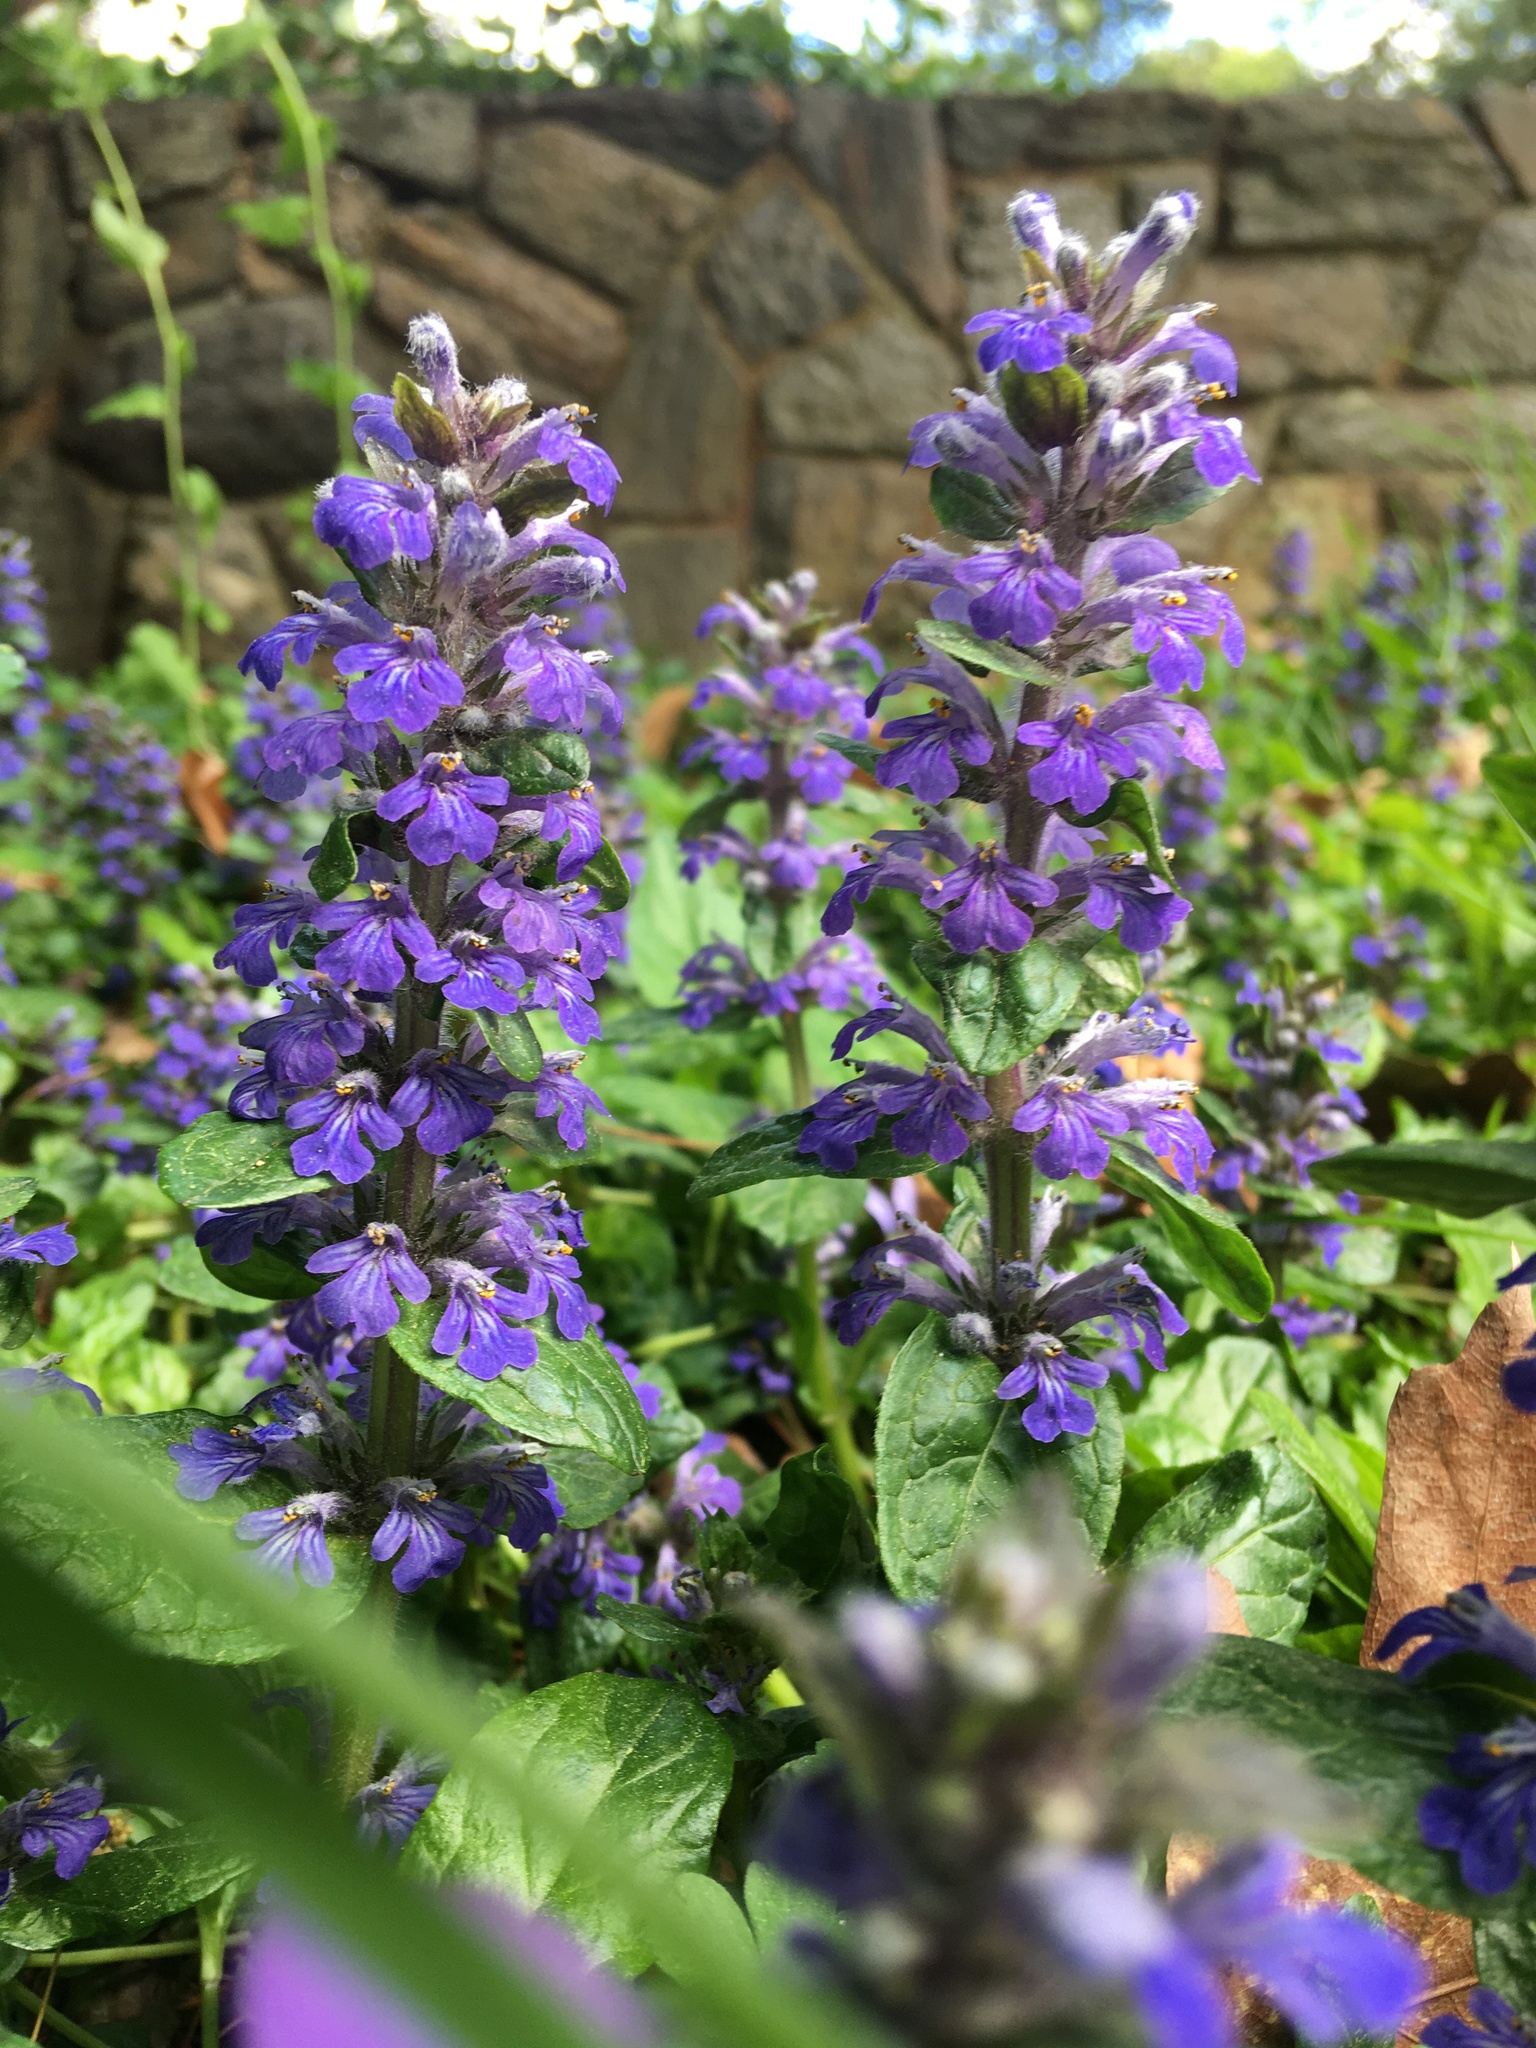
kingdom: Plantae
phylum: Tracheophyta
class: Magnoliopsida
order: Lamiales
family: Lamiaceae
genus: Ajuga
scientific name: Ajuga reptans
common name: Bugle
